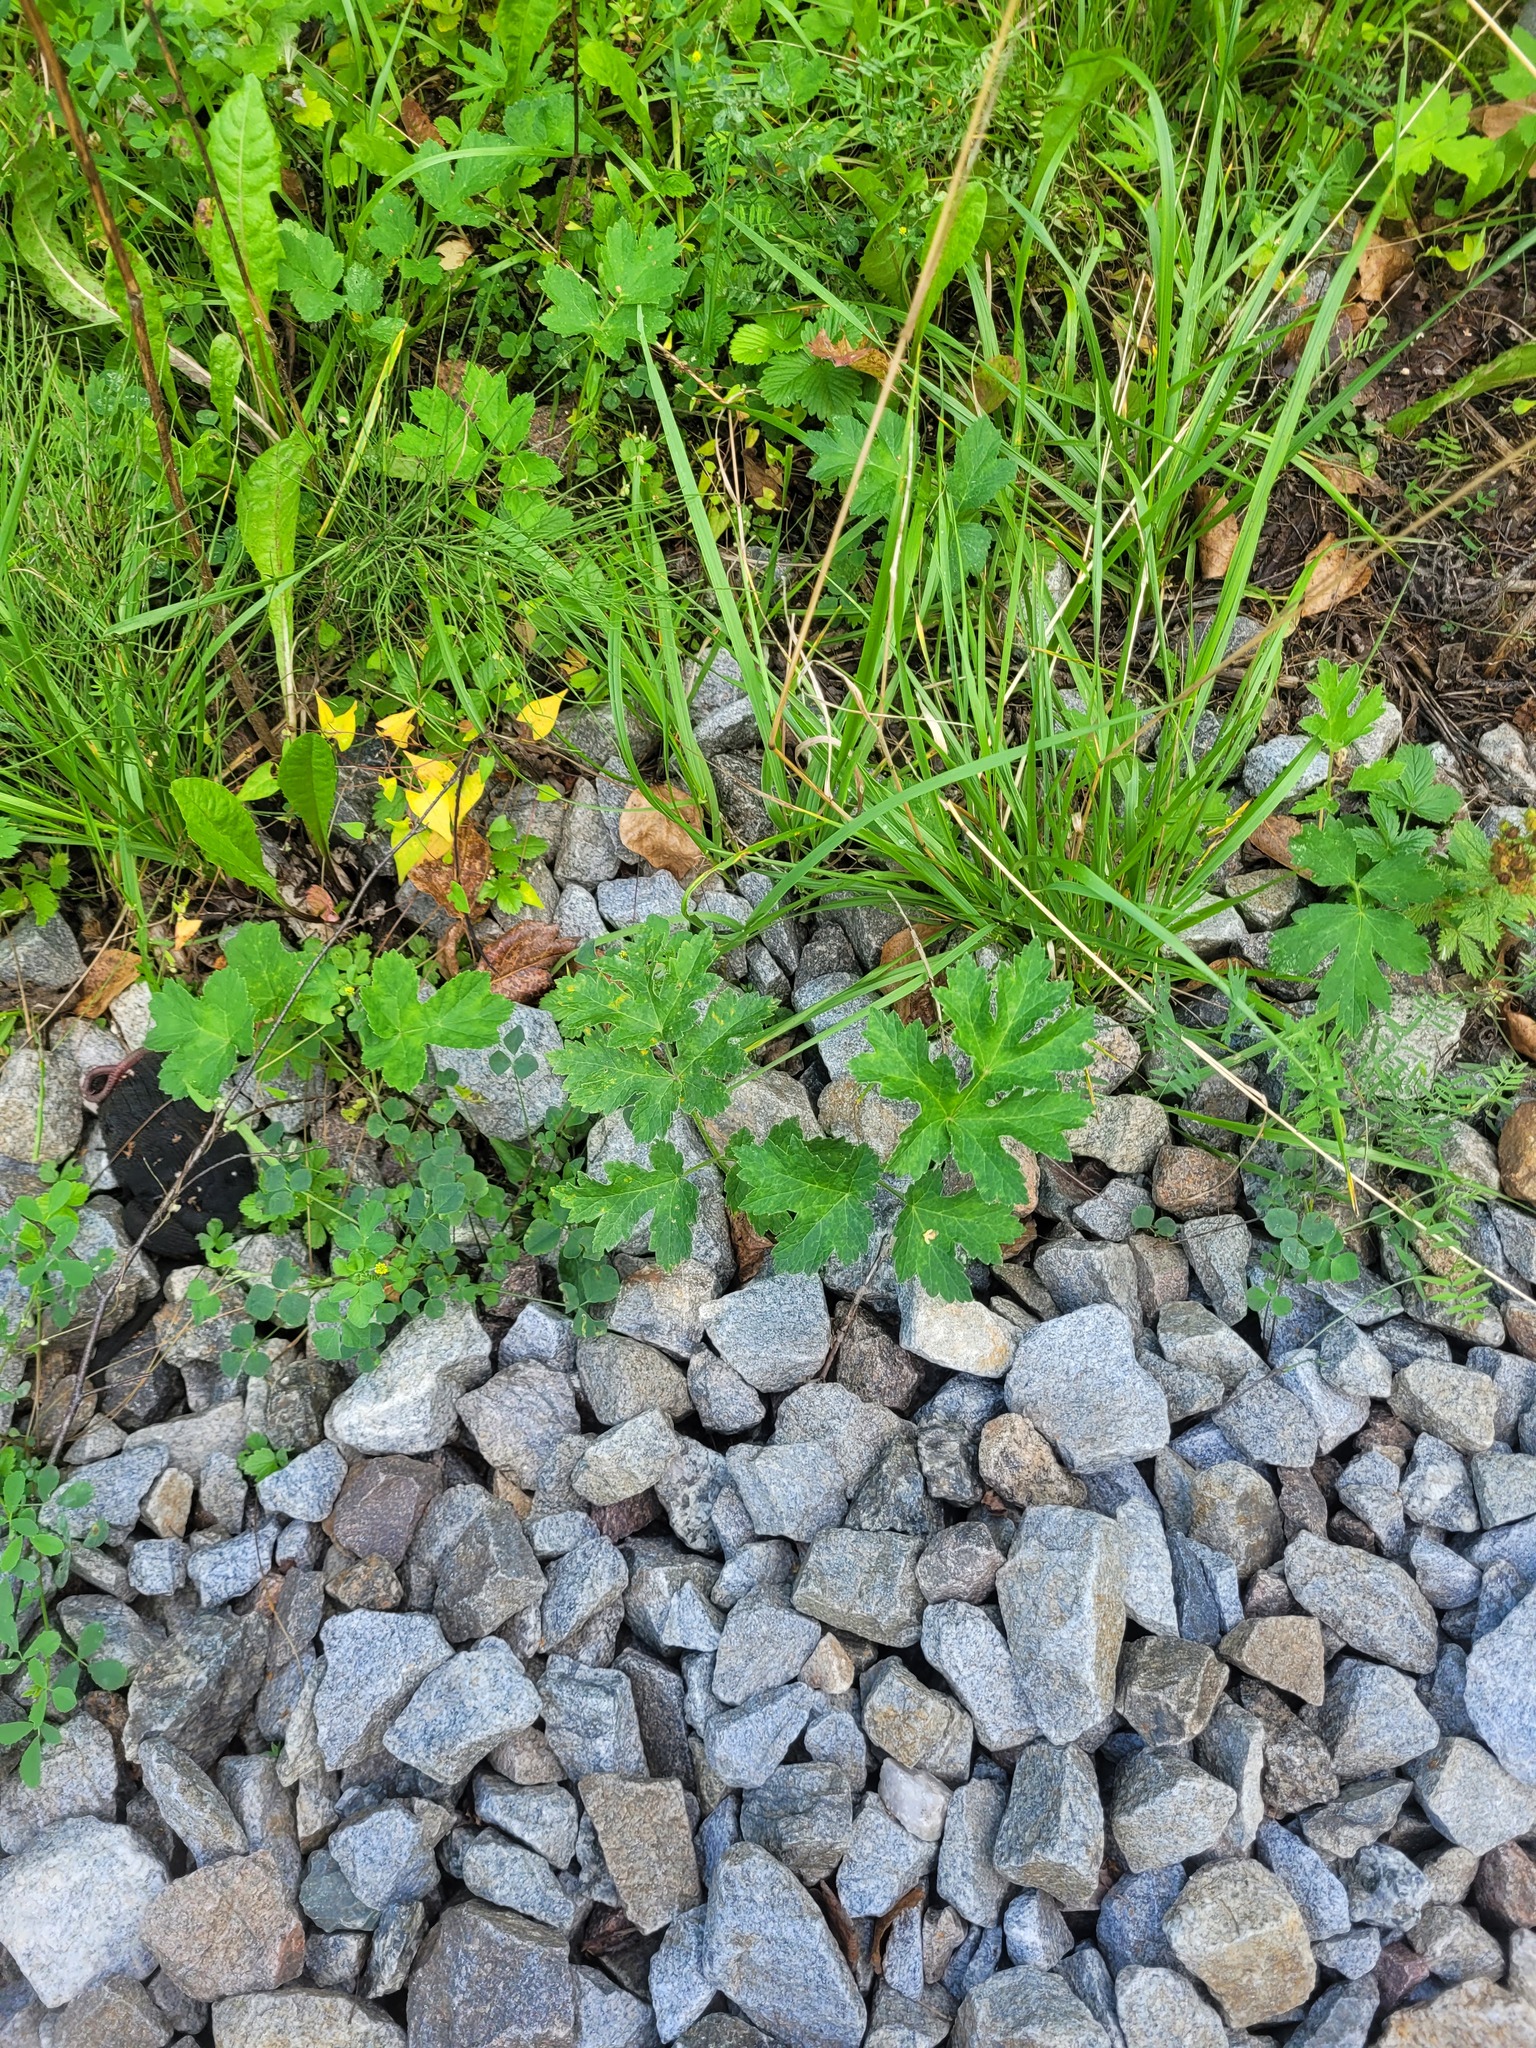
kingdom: Plantae
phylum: Tracheophyta
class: Magnoliopsida
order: Apiales
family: Apiaceae
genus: Heracleum
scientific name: Heracleum sphondylium
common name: Hogweed
